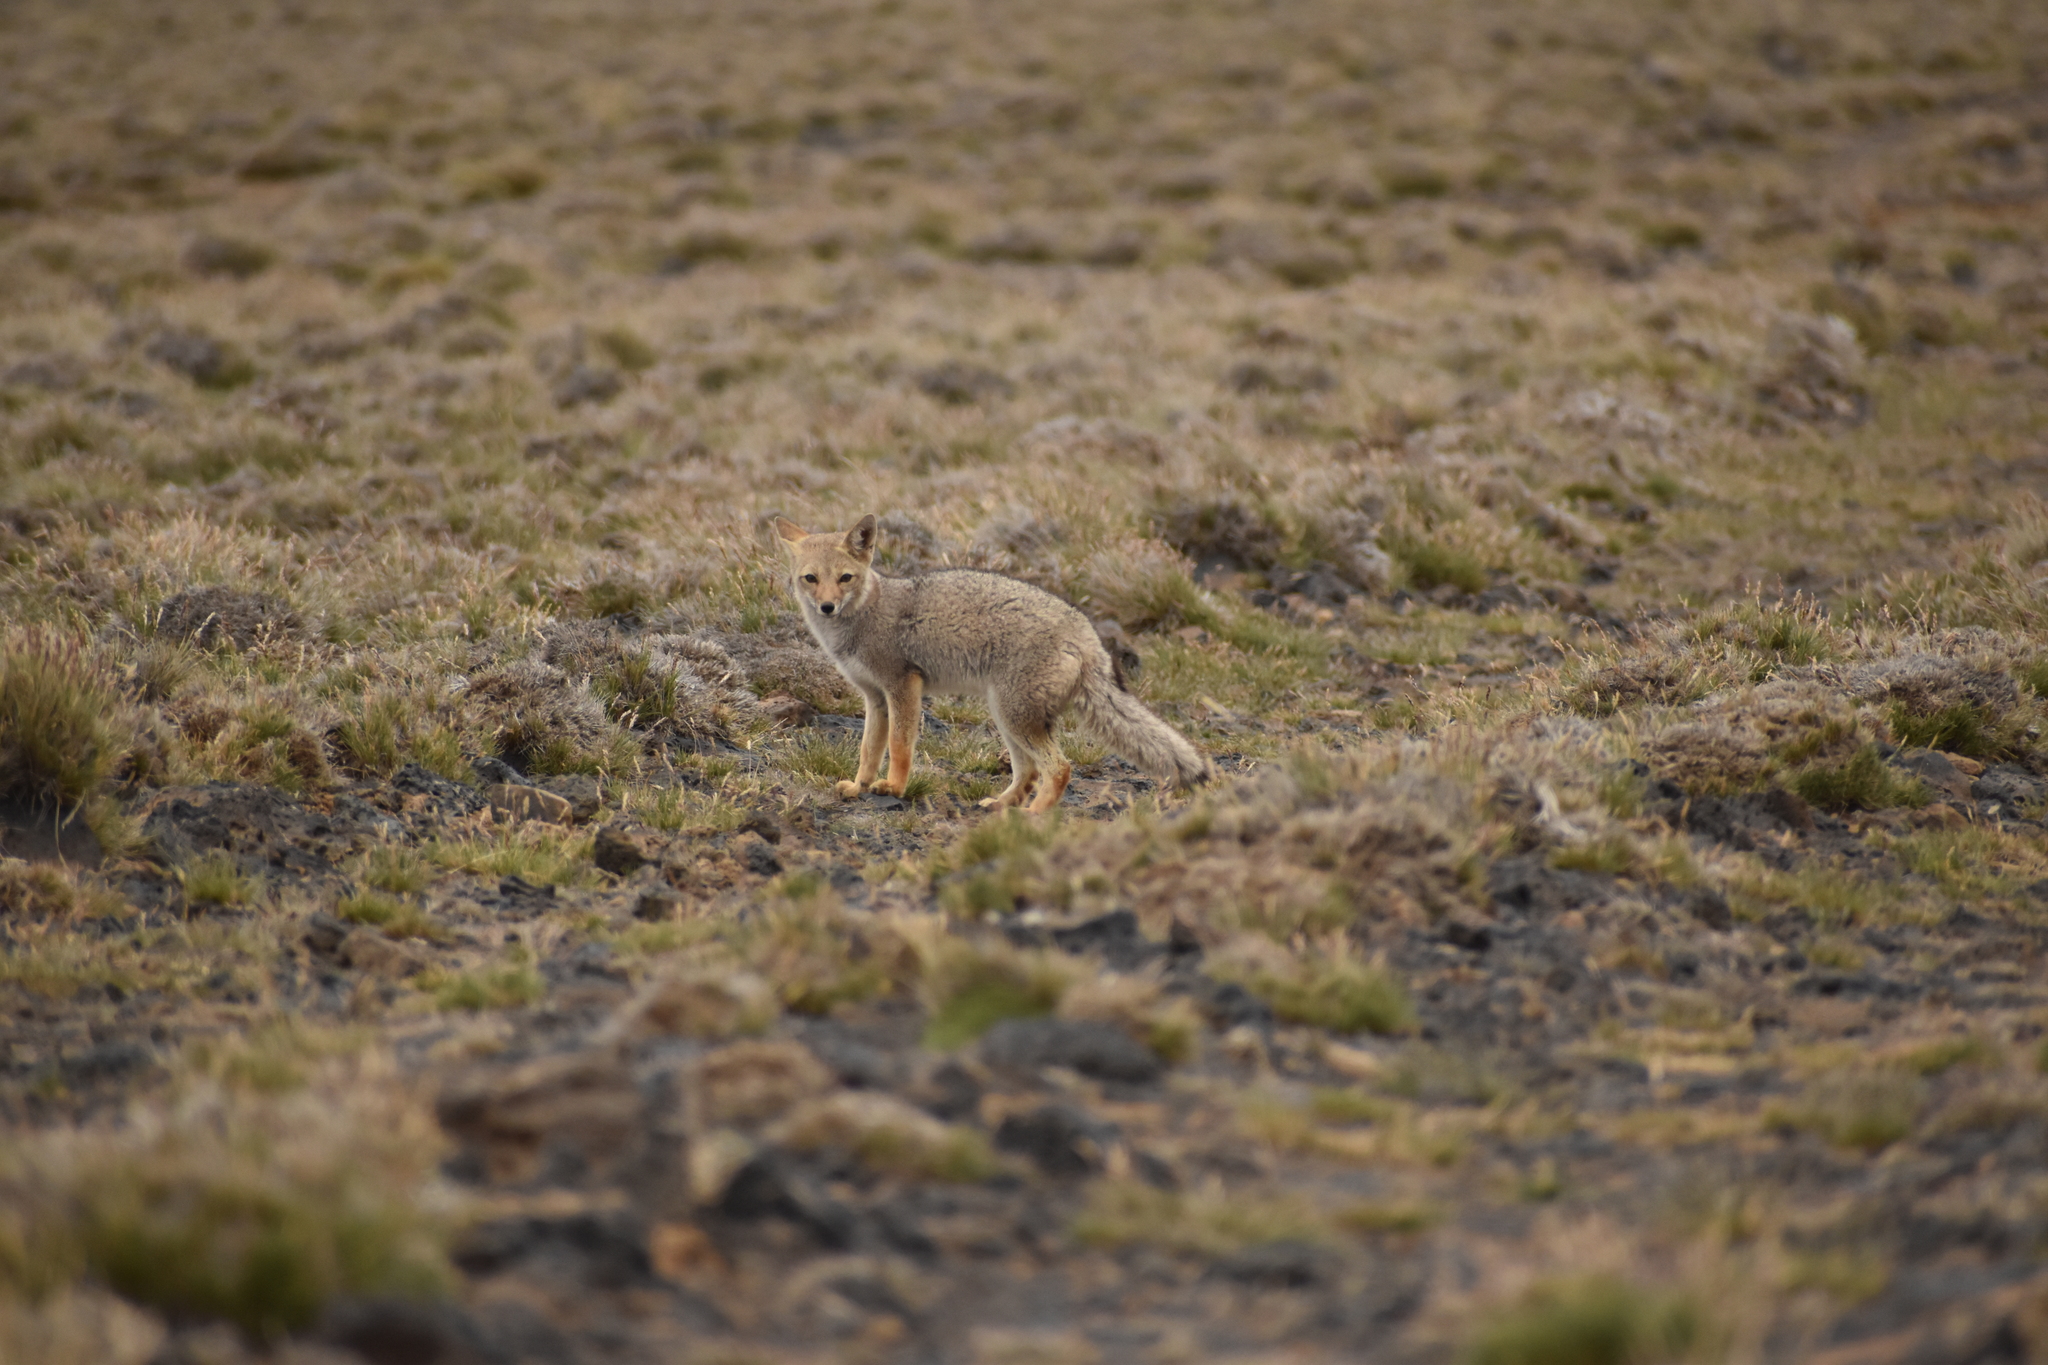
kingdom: Animalia
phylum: Chordata
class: Mammalia
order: Carnivora
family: Canidae
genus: Lycalopex
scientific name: Lycalopex culpaeus
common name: Culpeo
